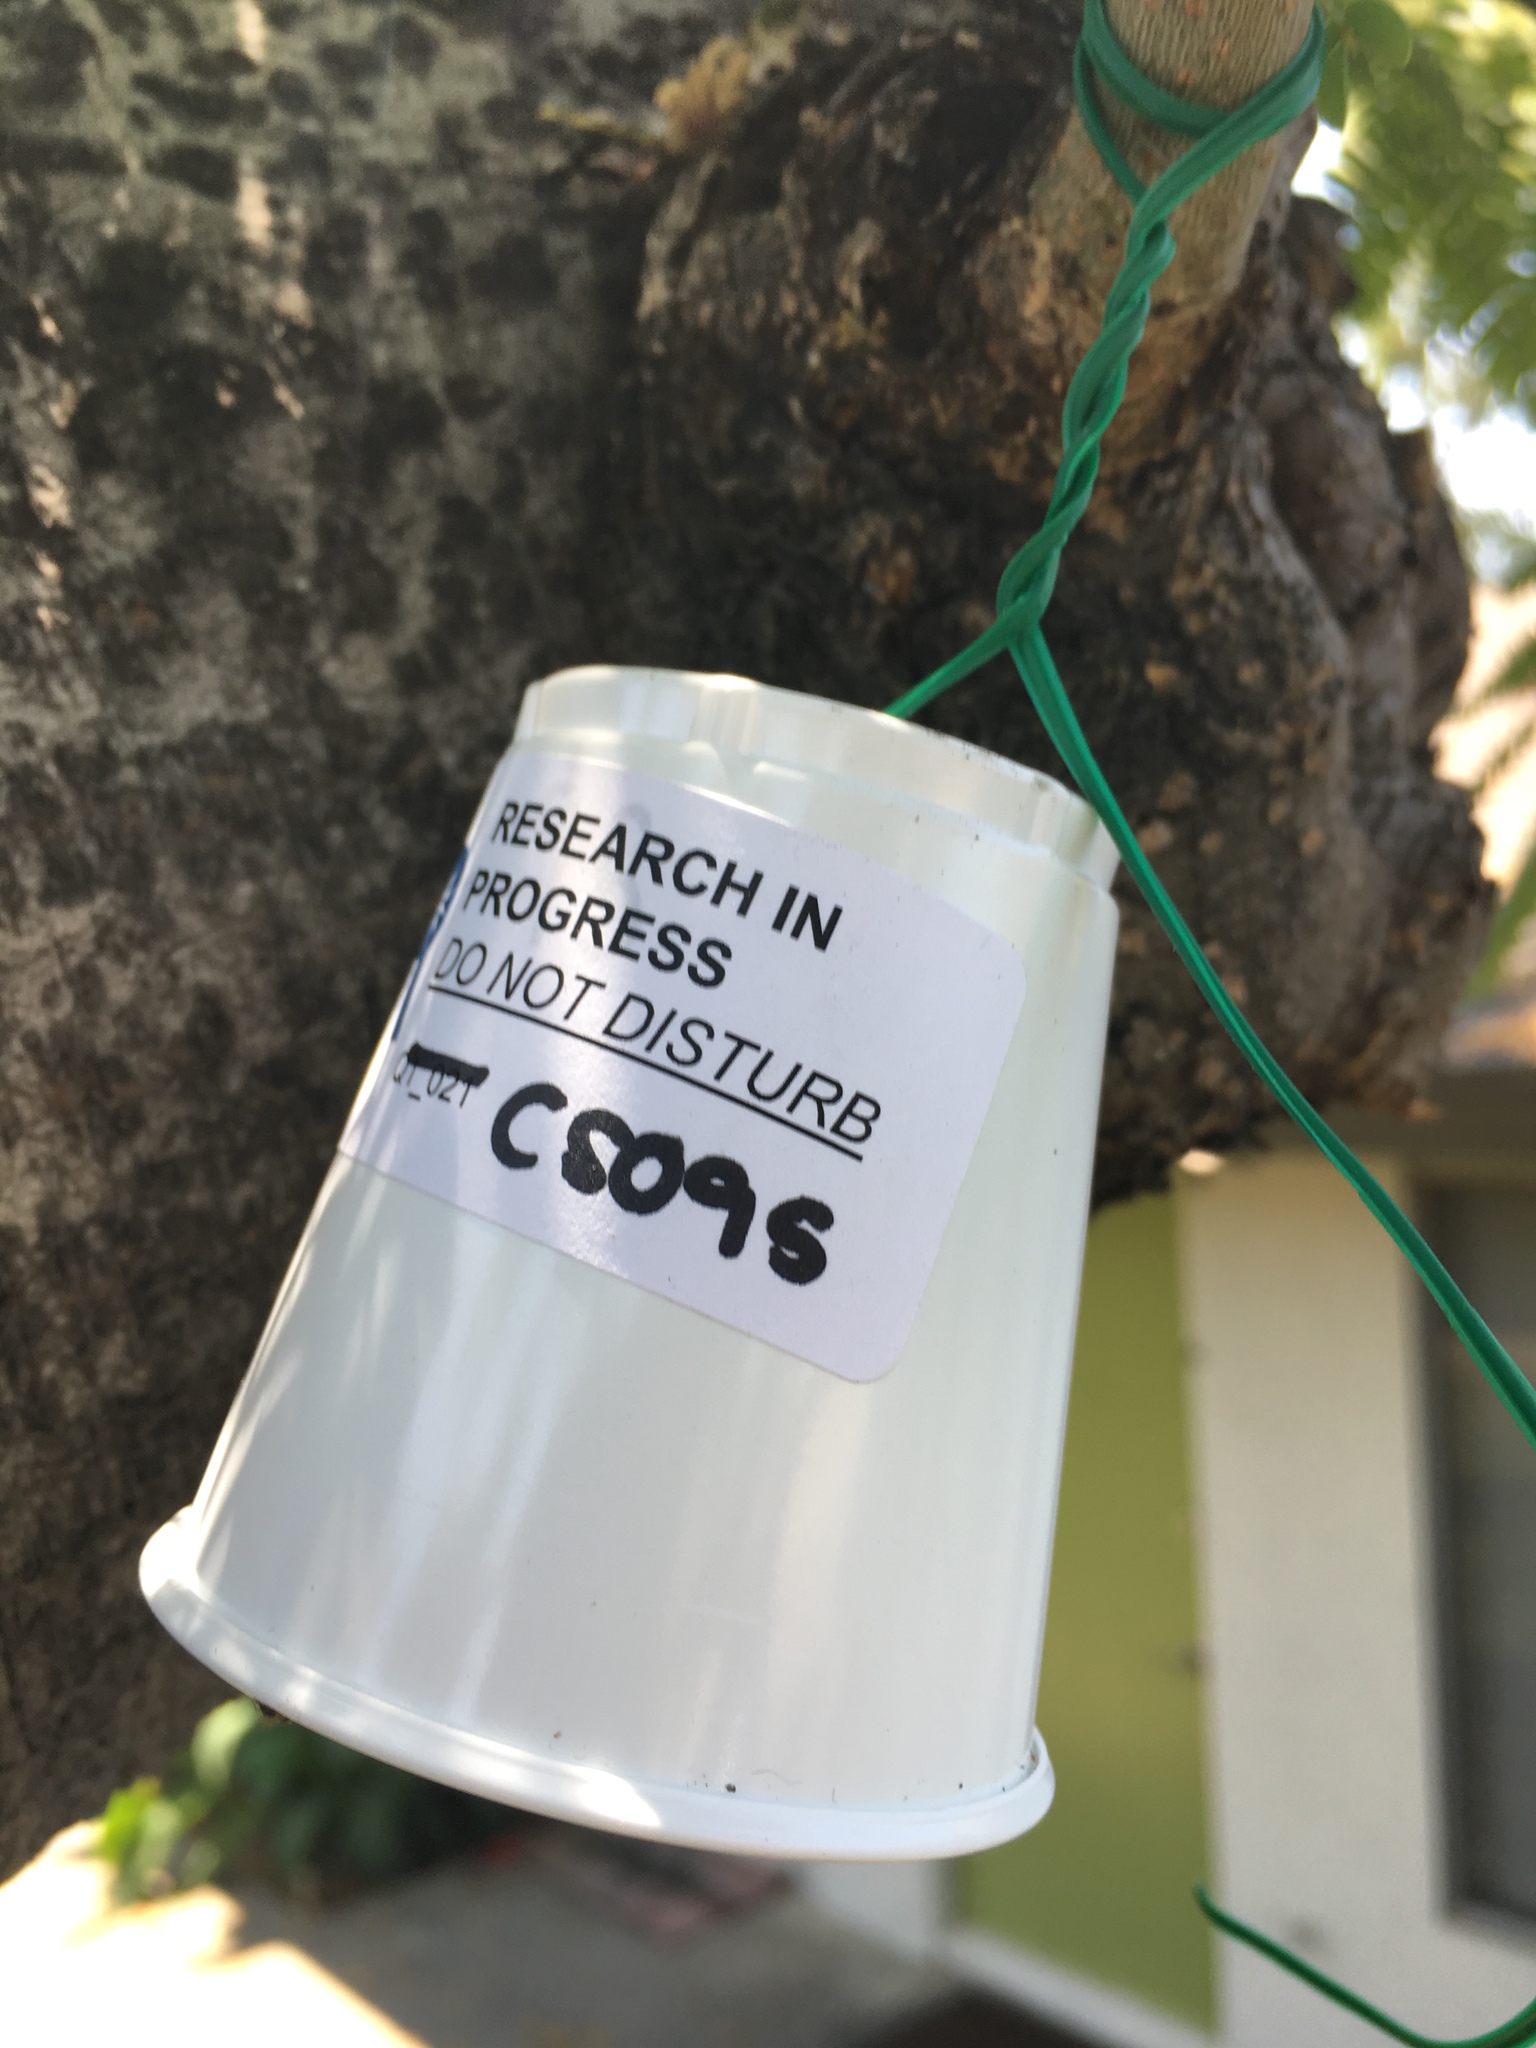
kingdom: Plantae
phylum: Tracheophyta
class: Magnoliopsida
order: Fabales
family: Fabaceae
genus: Albizia
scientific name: Albizia julibrissin
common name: Silktree
